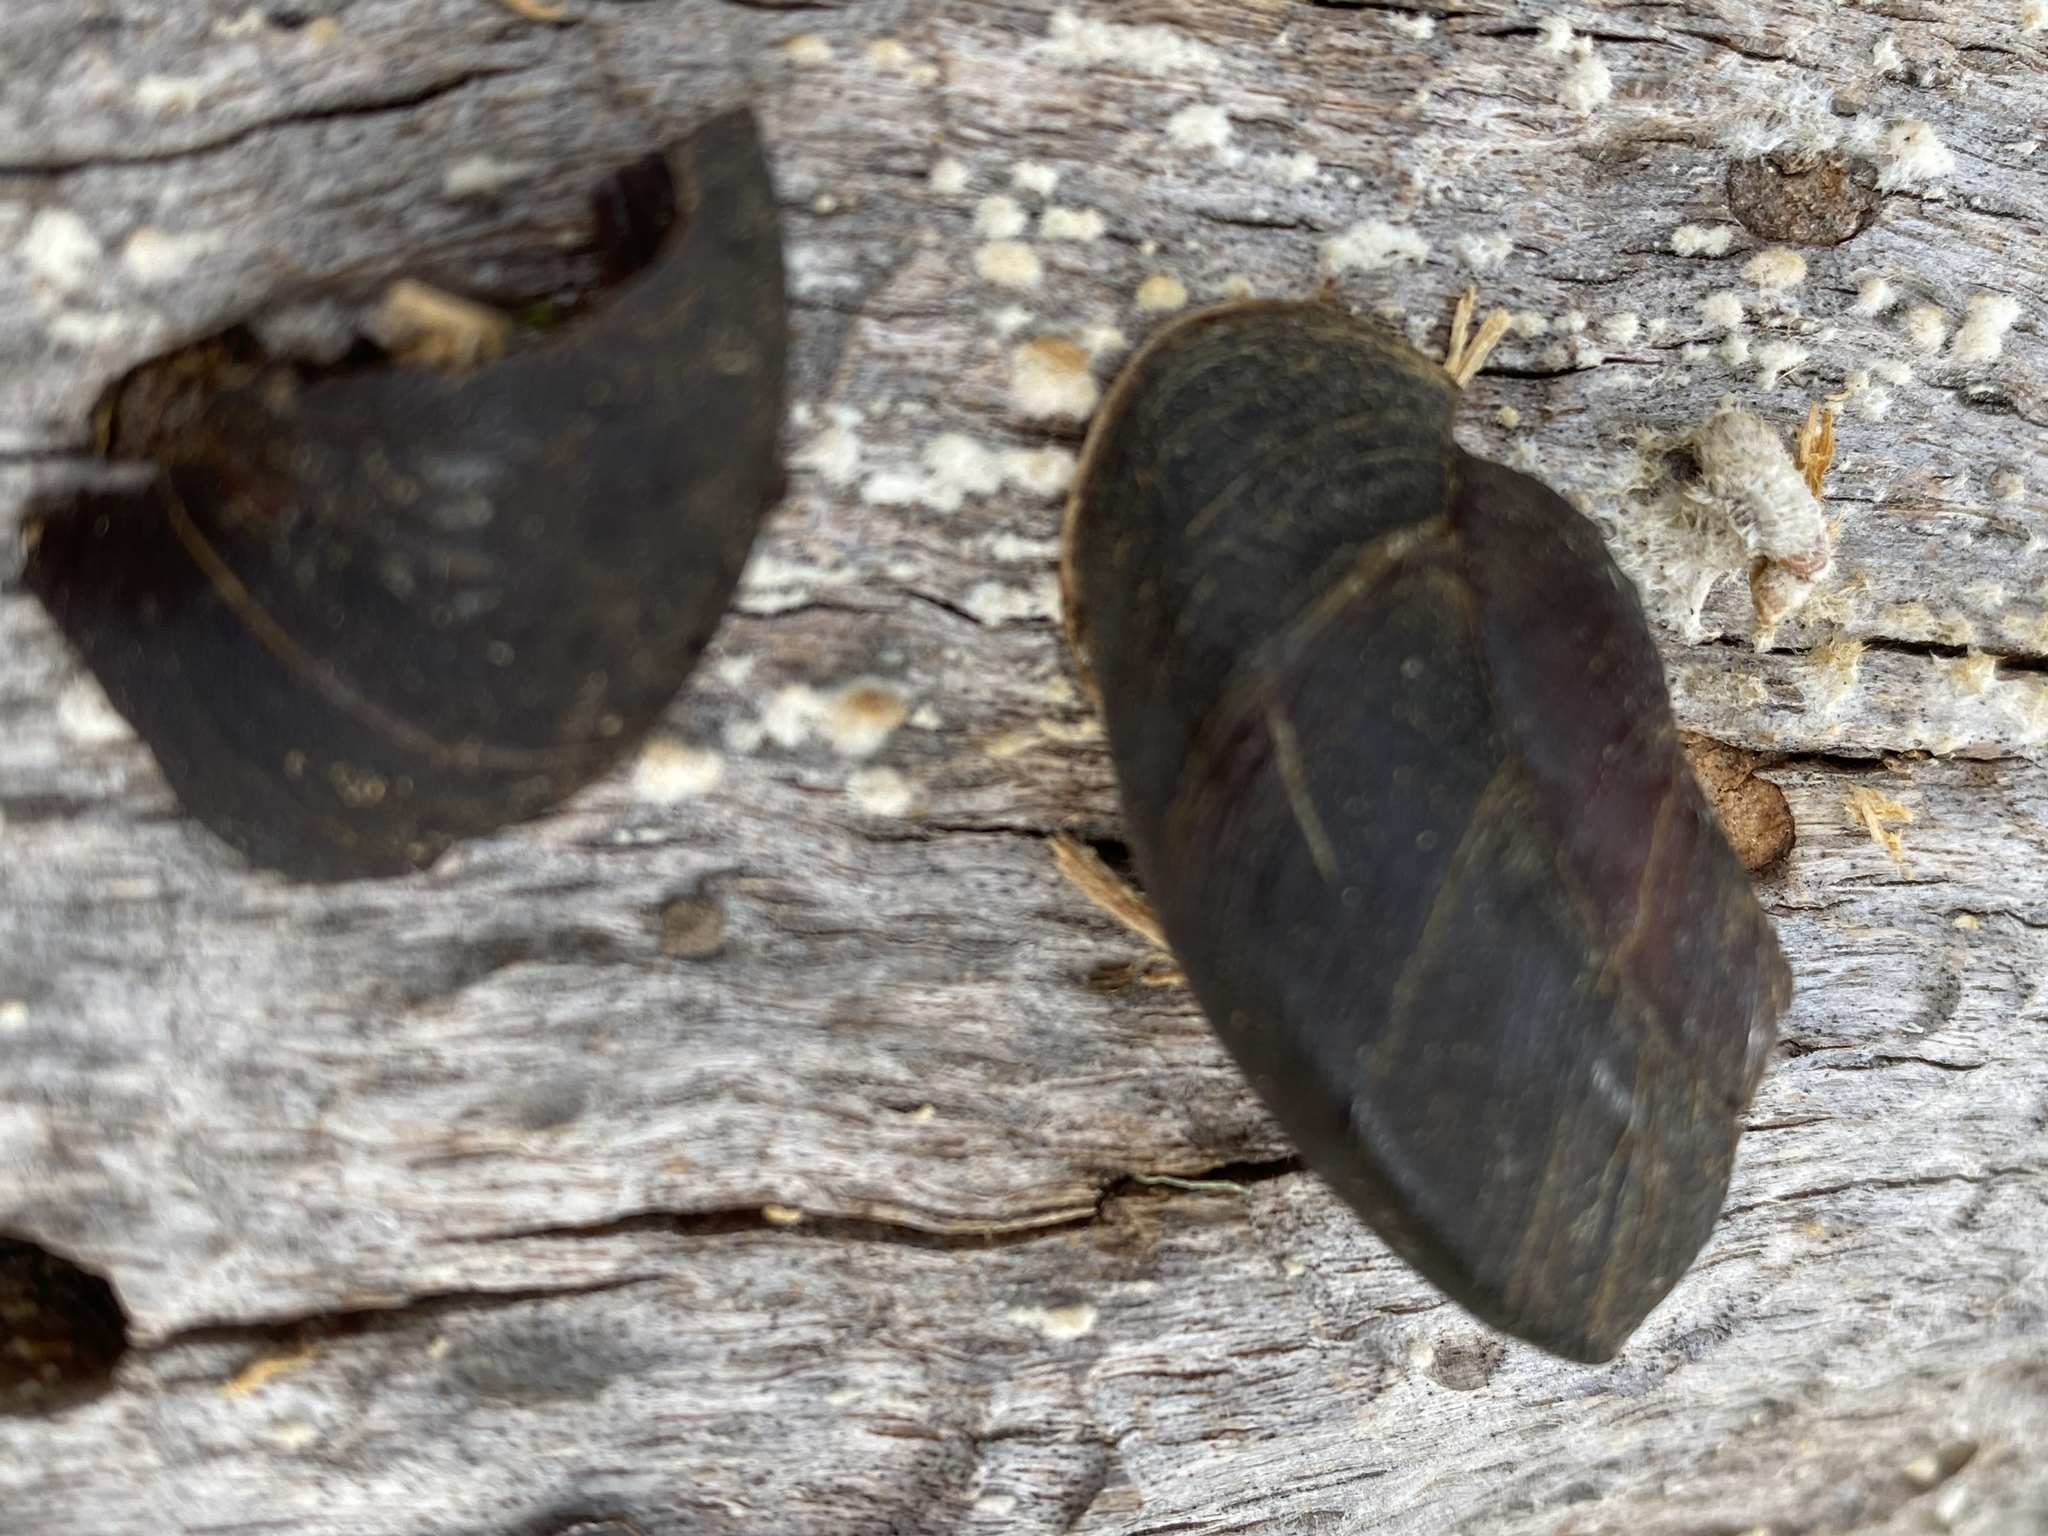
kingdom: Animalia
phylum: Mollusca
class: Gastropoda
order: Stylommatophora
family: Xanthonychidae
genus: Monadenia
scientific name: Monadenia infumata
